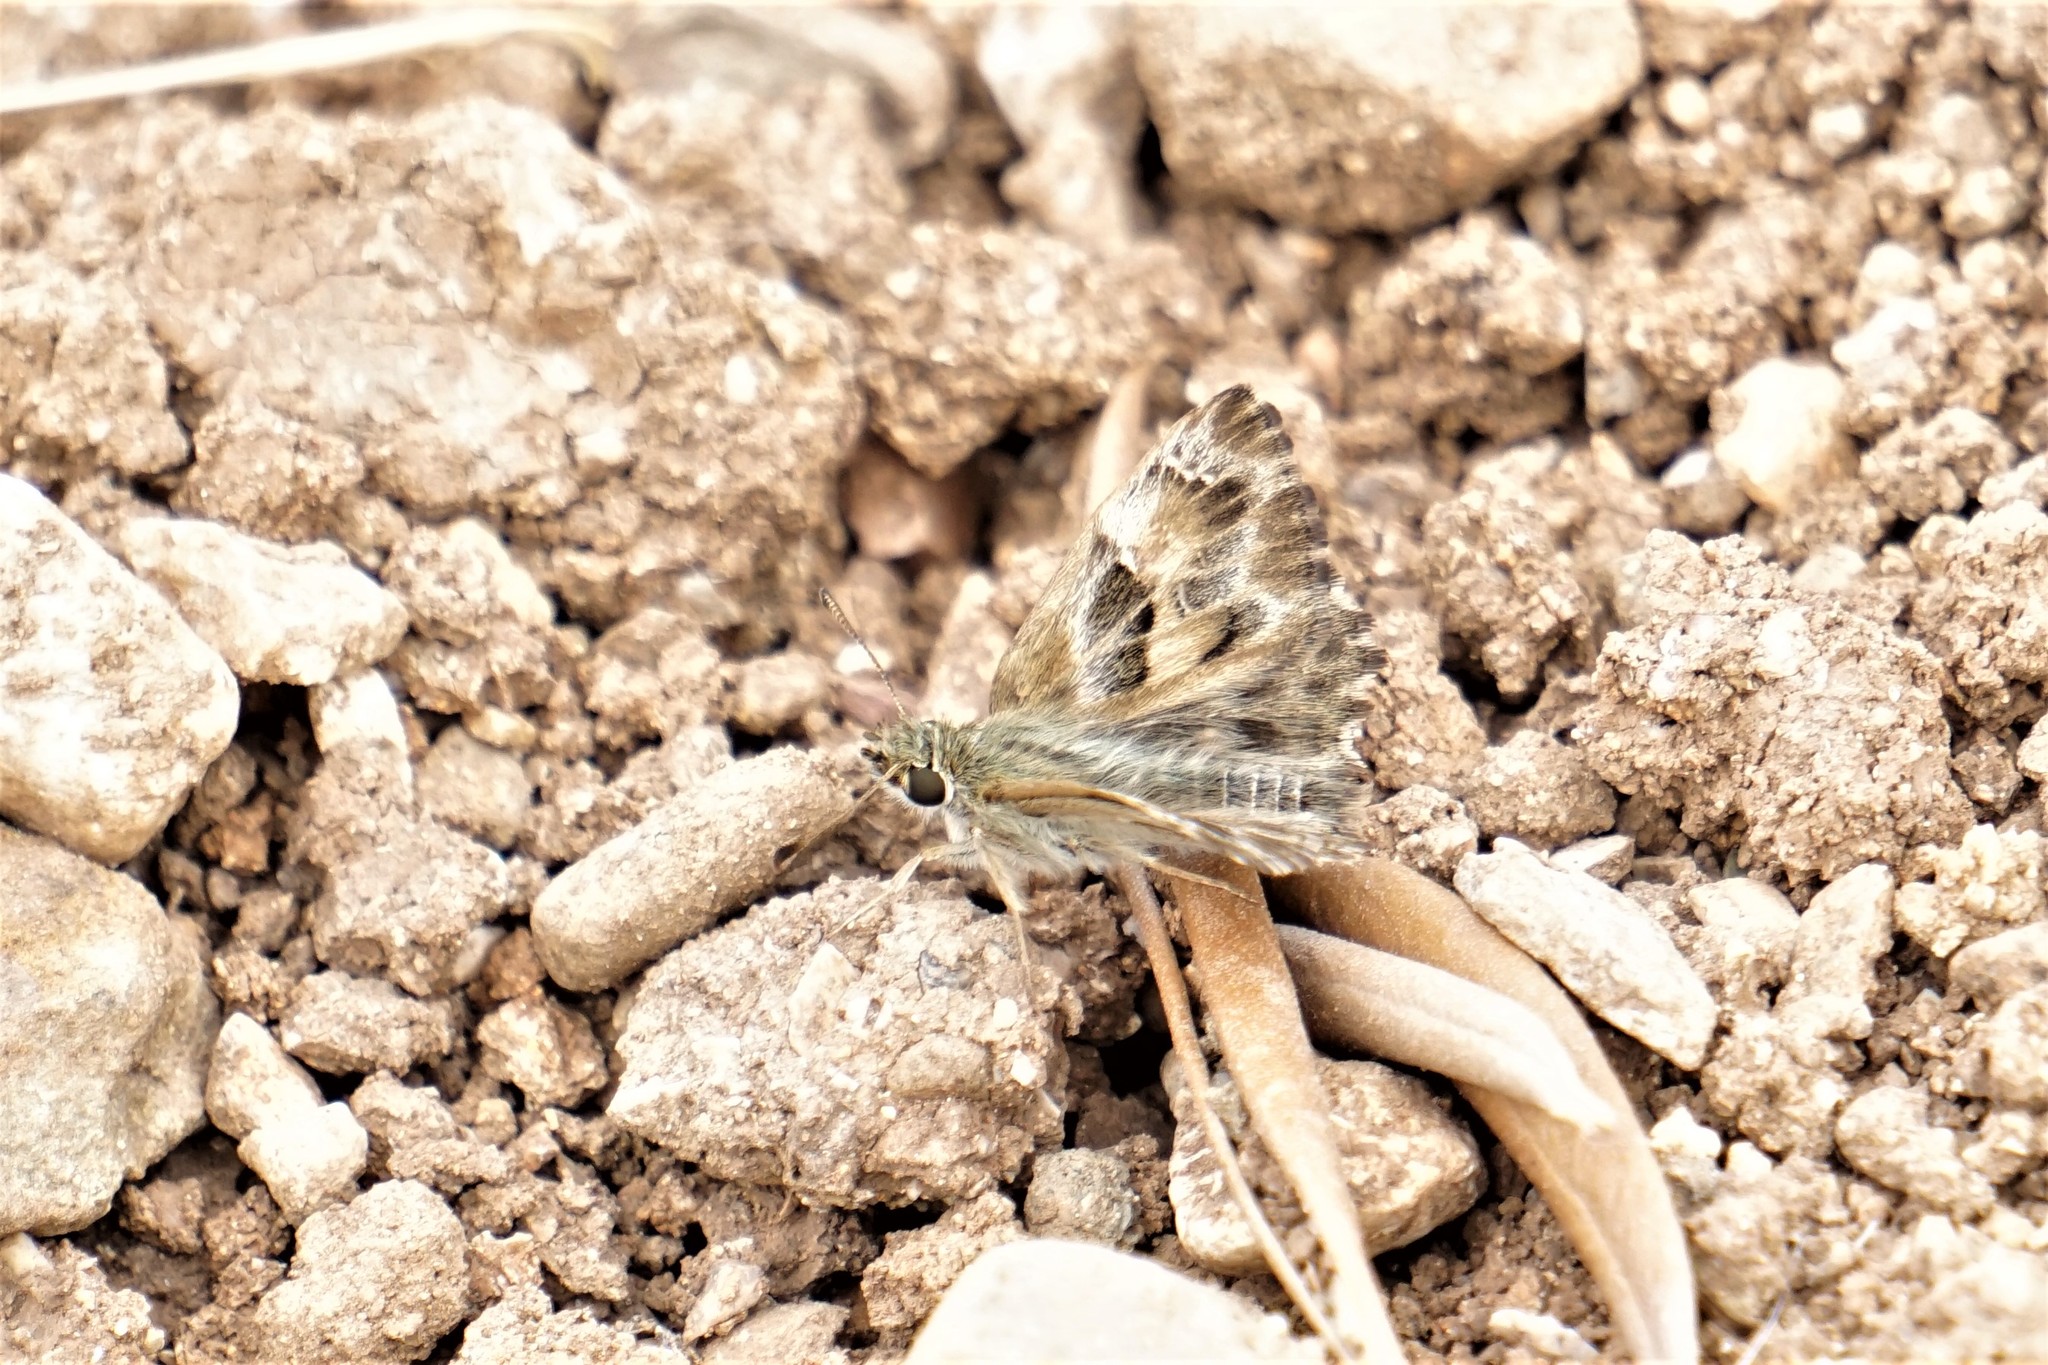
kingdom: Animalia
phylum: Arthropoda
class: Insecta
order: Lepidoptera
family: Hesperiidae
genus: Carcharodus
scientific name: Carcharodus alceae
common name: Mallow skipper
